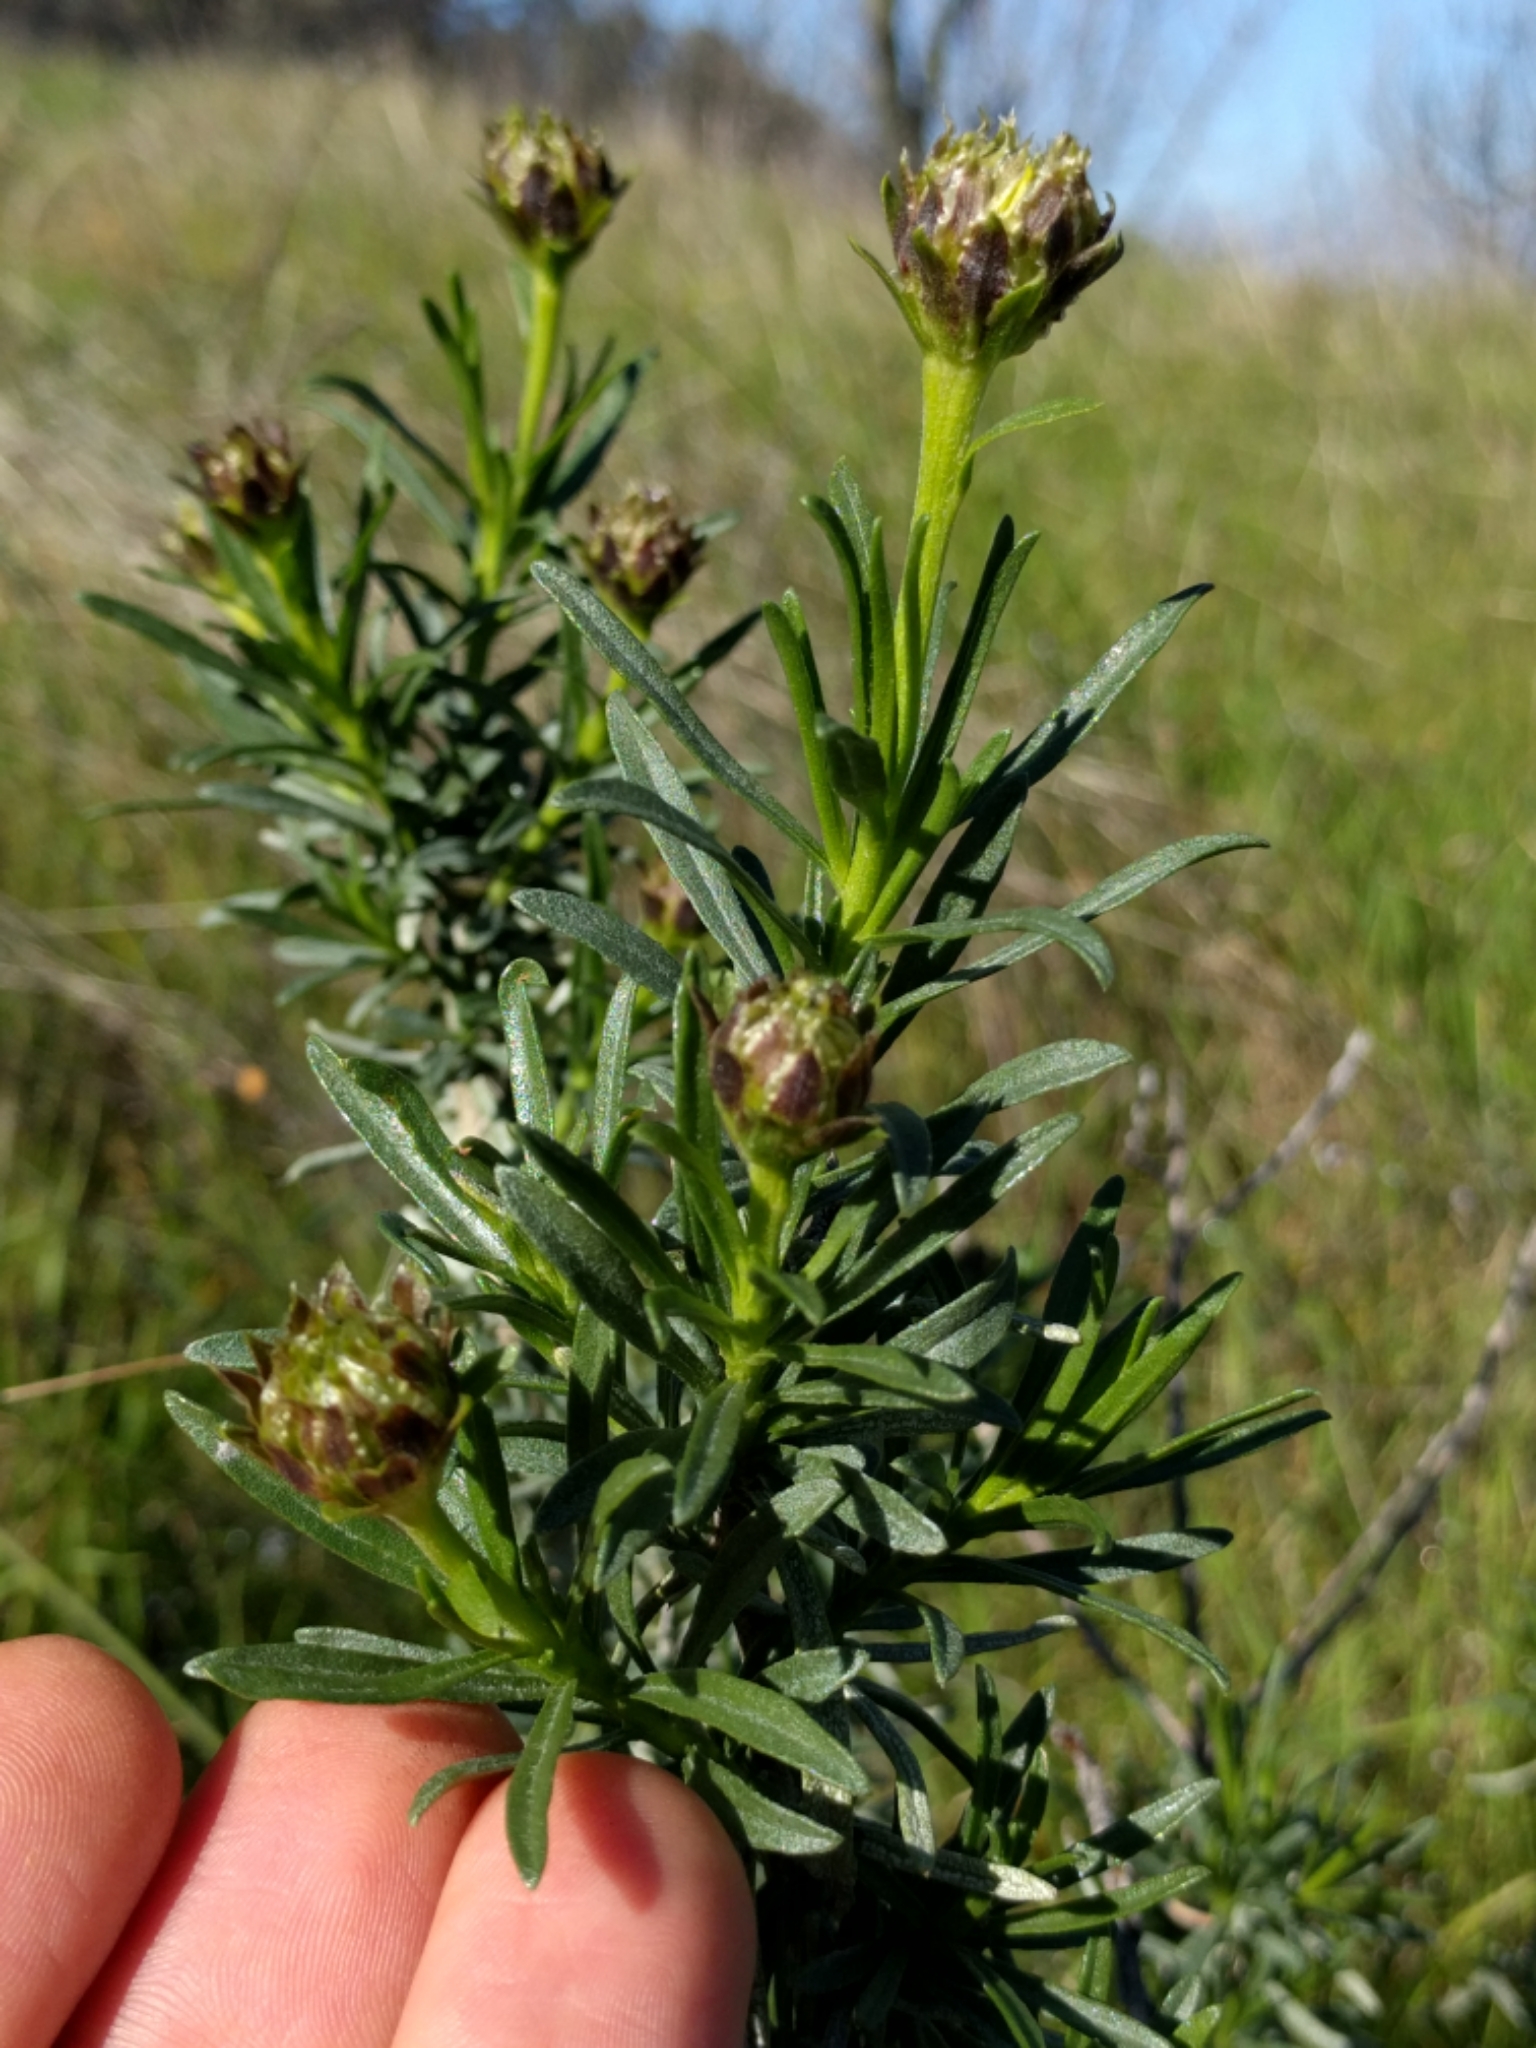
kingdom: Plantae
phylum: Tracheophyta
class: Magnoliopsida
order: Asterales
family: Asteraceae
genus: Ericameria
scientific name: Ericameria linearifolia
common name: Interior goldenbush
